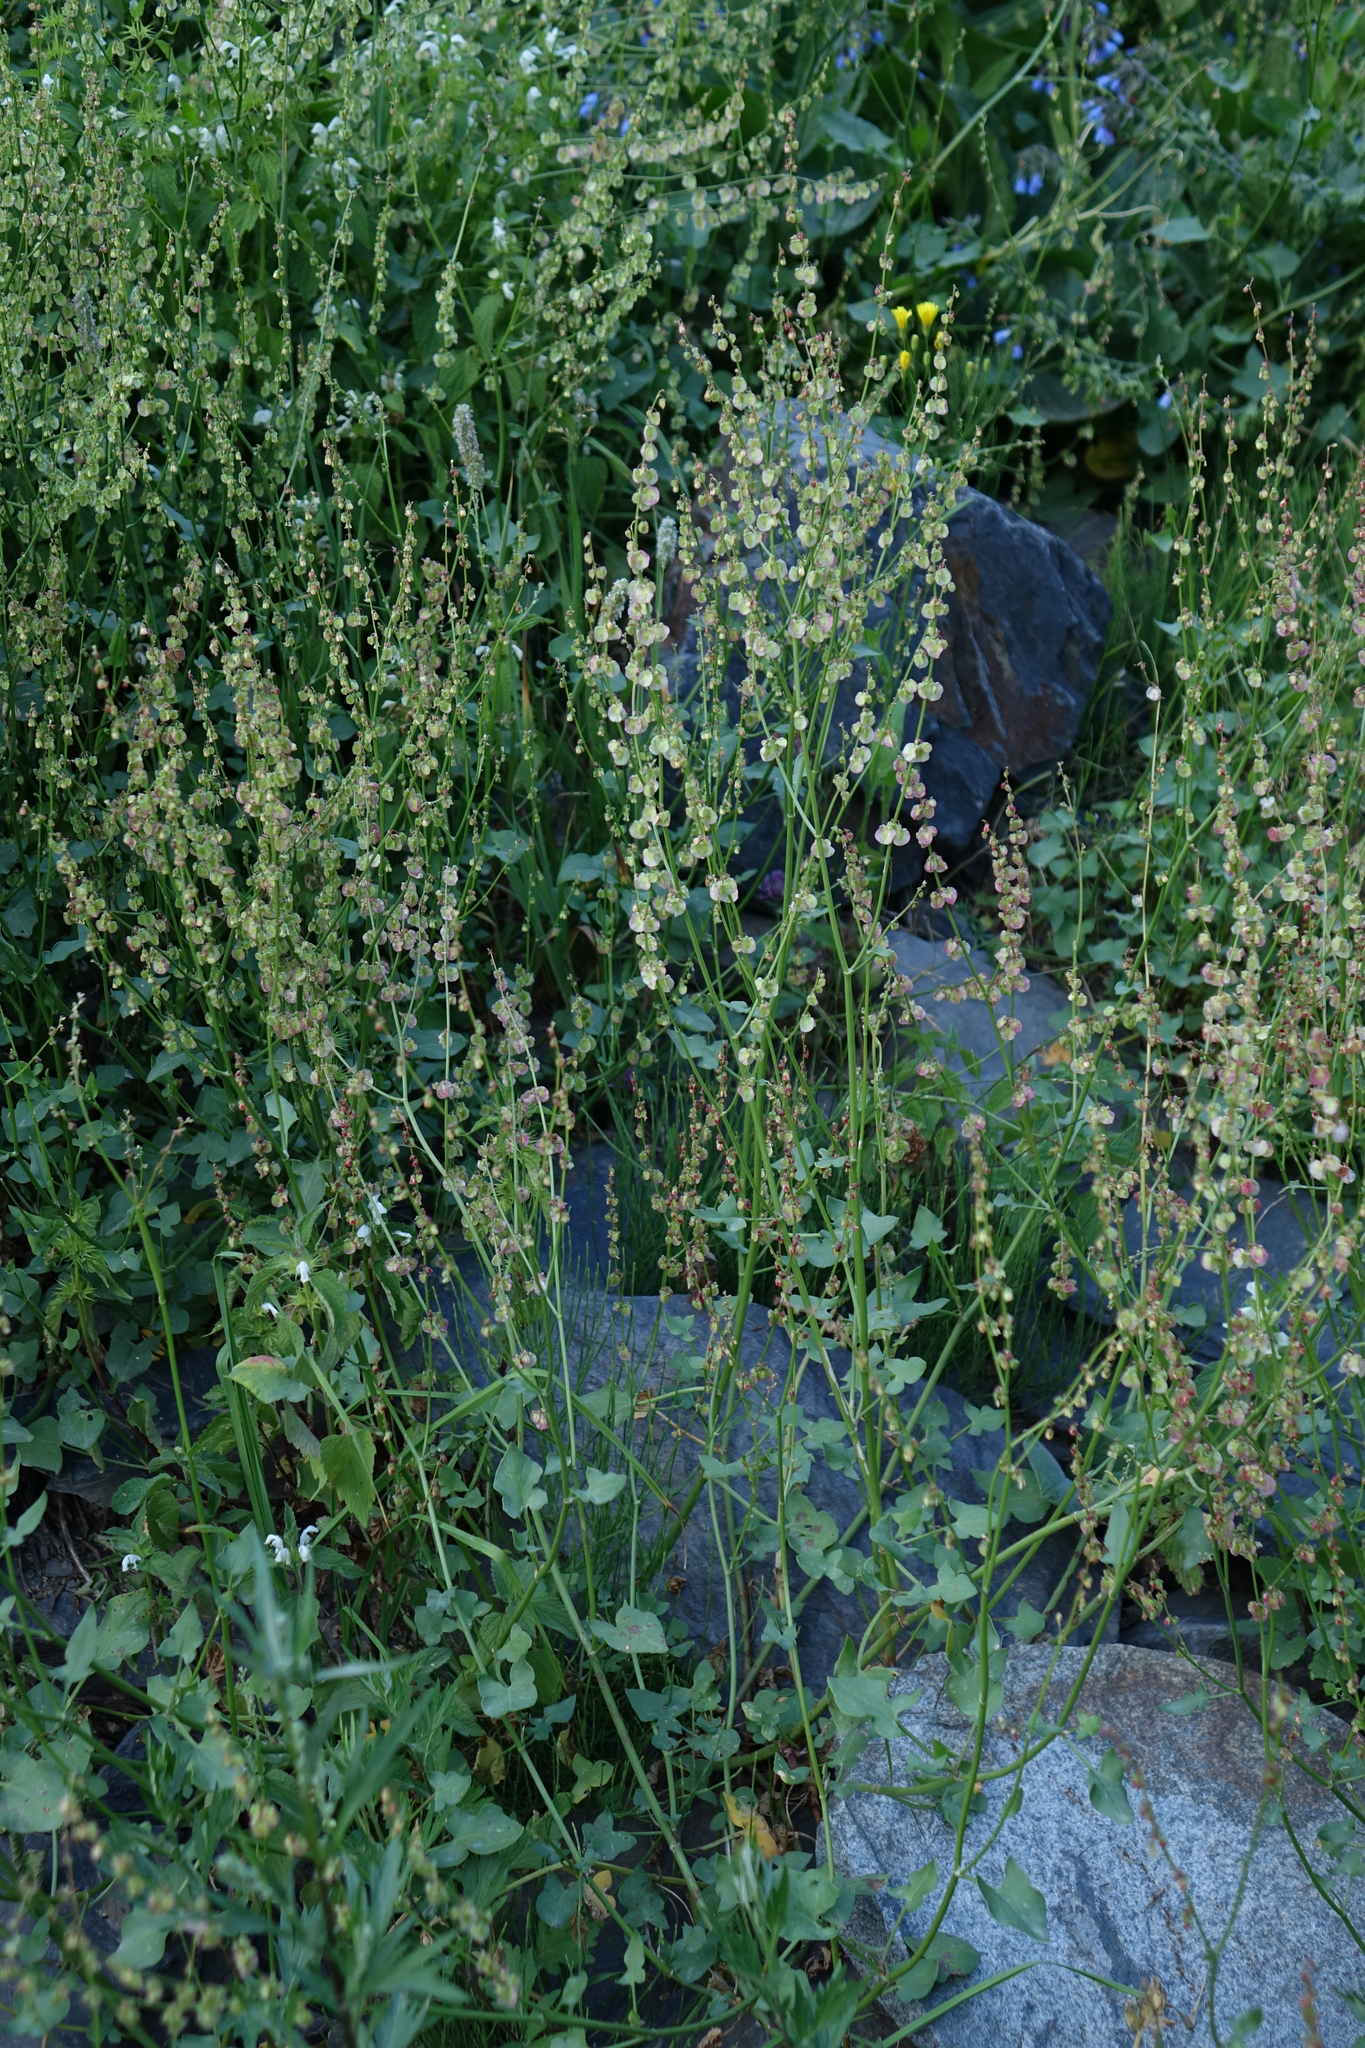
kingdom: Plantae
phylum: Tracheophyta
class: Magnoliopsida
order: Caryophyllales
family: Polygonaceae
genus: Rumex
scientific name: Rumex scutatus
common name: French sorrel
